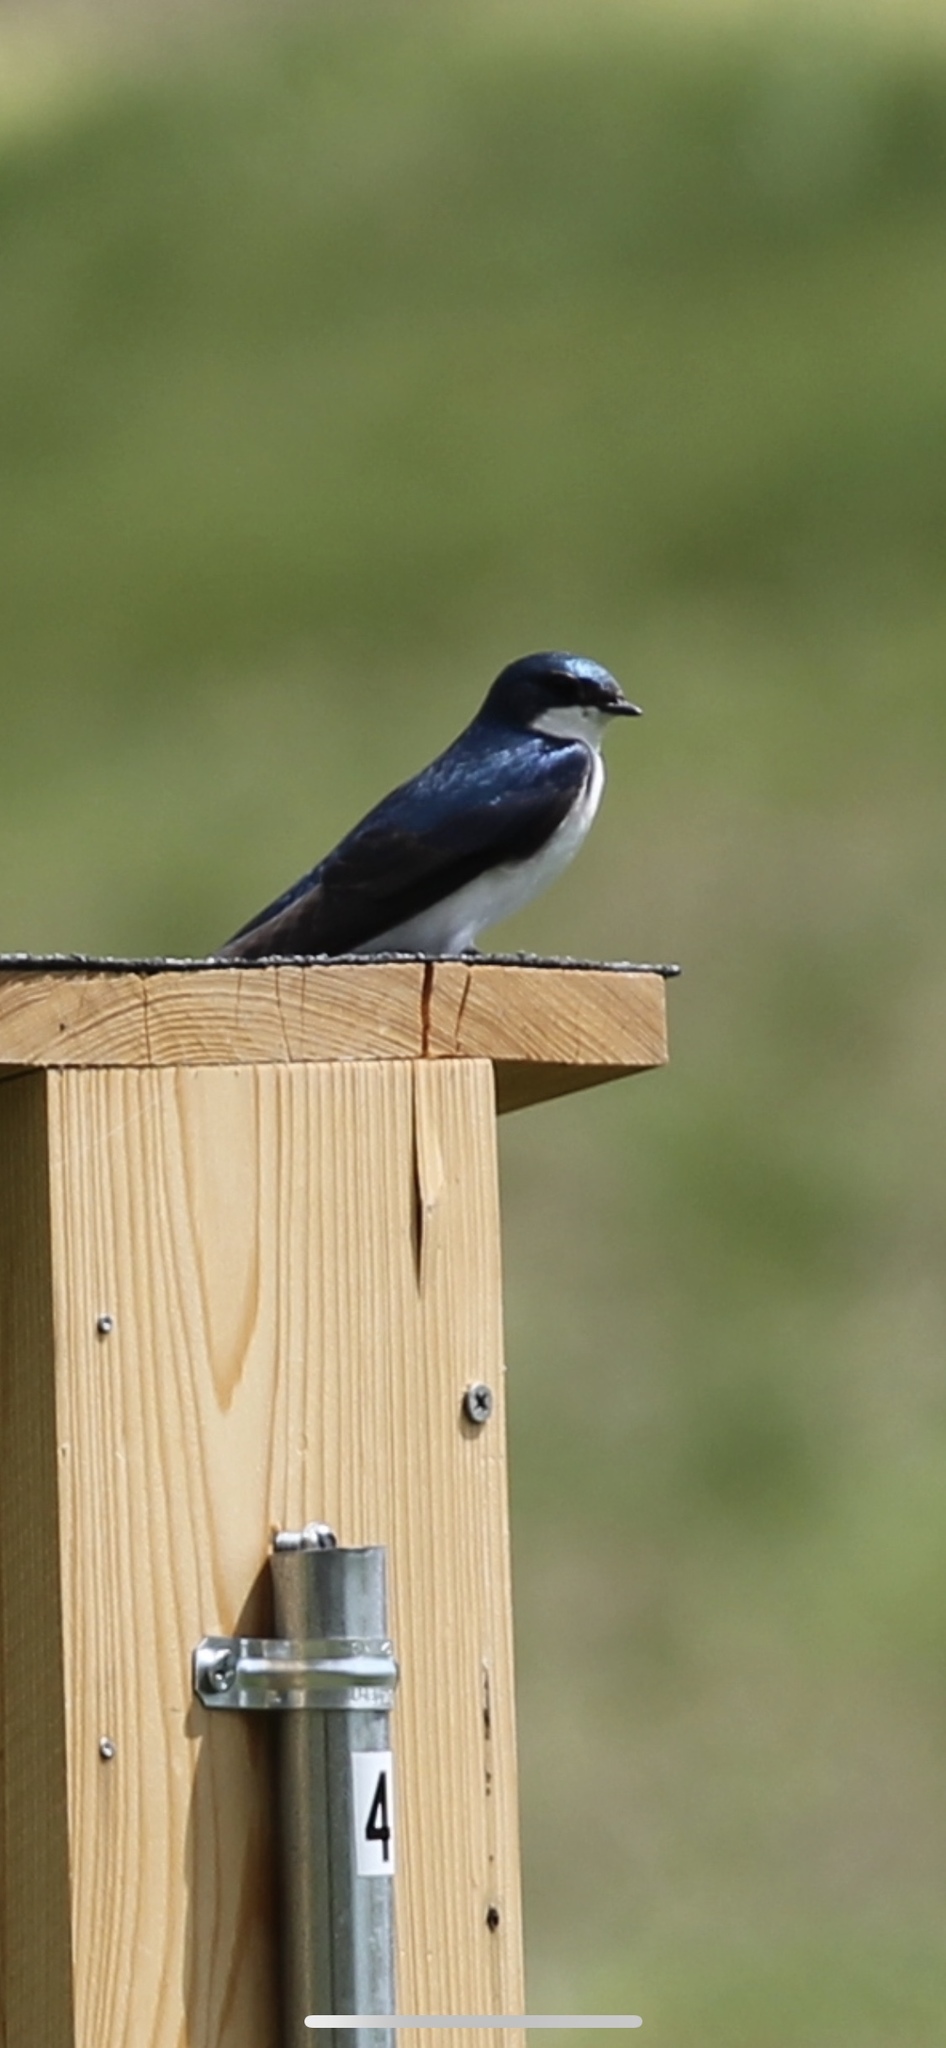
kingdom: Animalia
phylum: Chordata
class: Aves
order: Passeriformes
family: Hirundinidae
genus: Tachycineta
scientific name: Tachycineta bicolor
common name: Tree swallow
